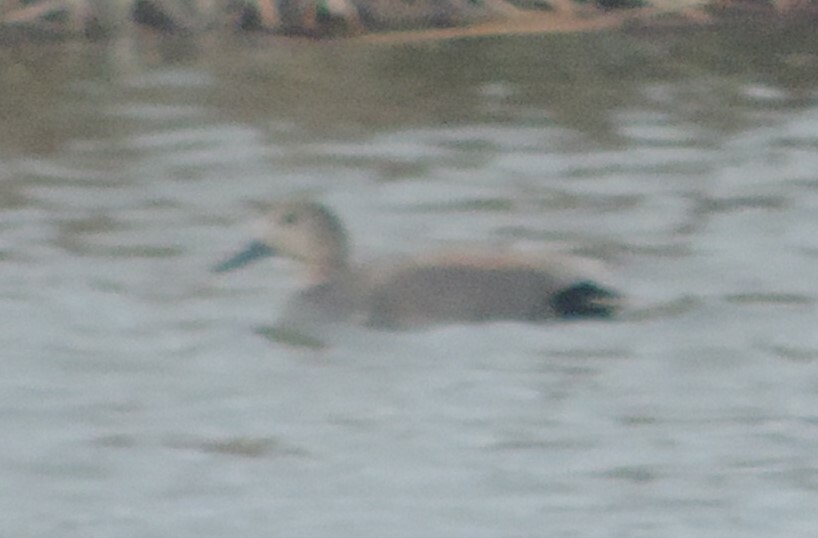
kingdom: Animalia
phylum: Chordata
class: Aves
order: Anseriformes
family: Anatidae
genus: Mareca
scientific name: Mareca strepera
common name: Gadwall
